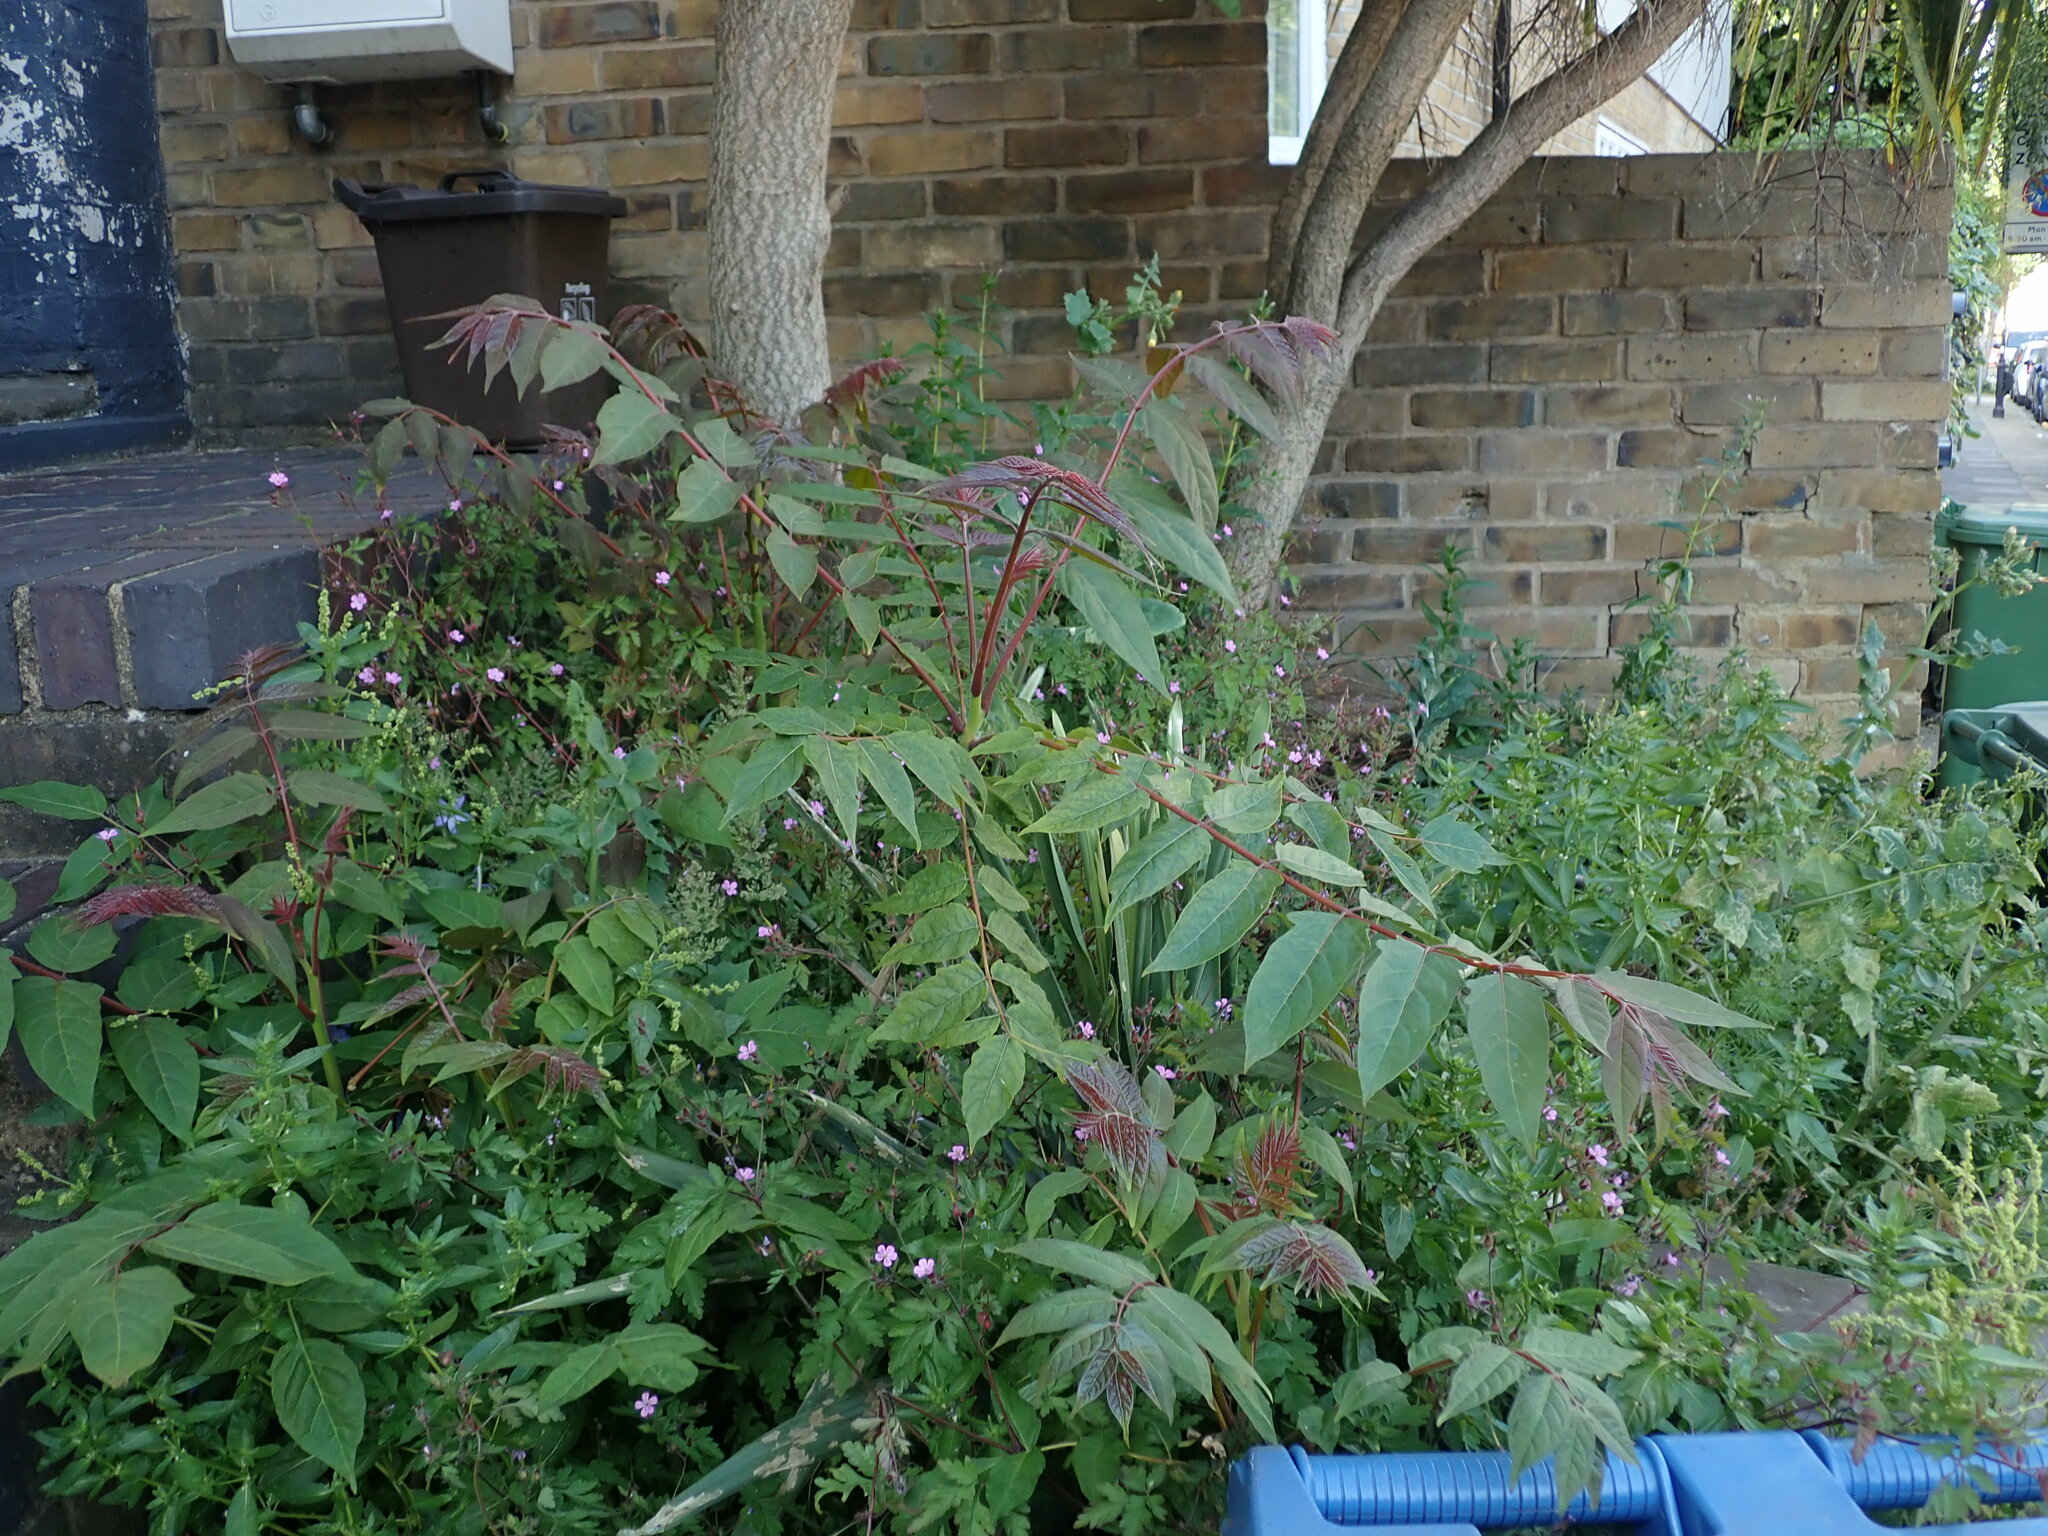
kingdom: Plantae
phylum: Tracheophyta
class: Magnoliopsida
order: Sapindales
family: Simaroubaceae
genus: Ailanthus
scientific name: Ailanthus altissima
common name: Tree-of-heaven
